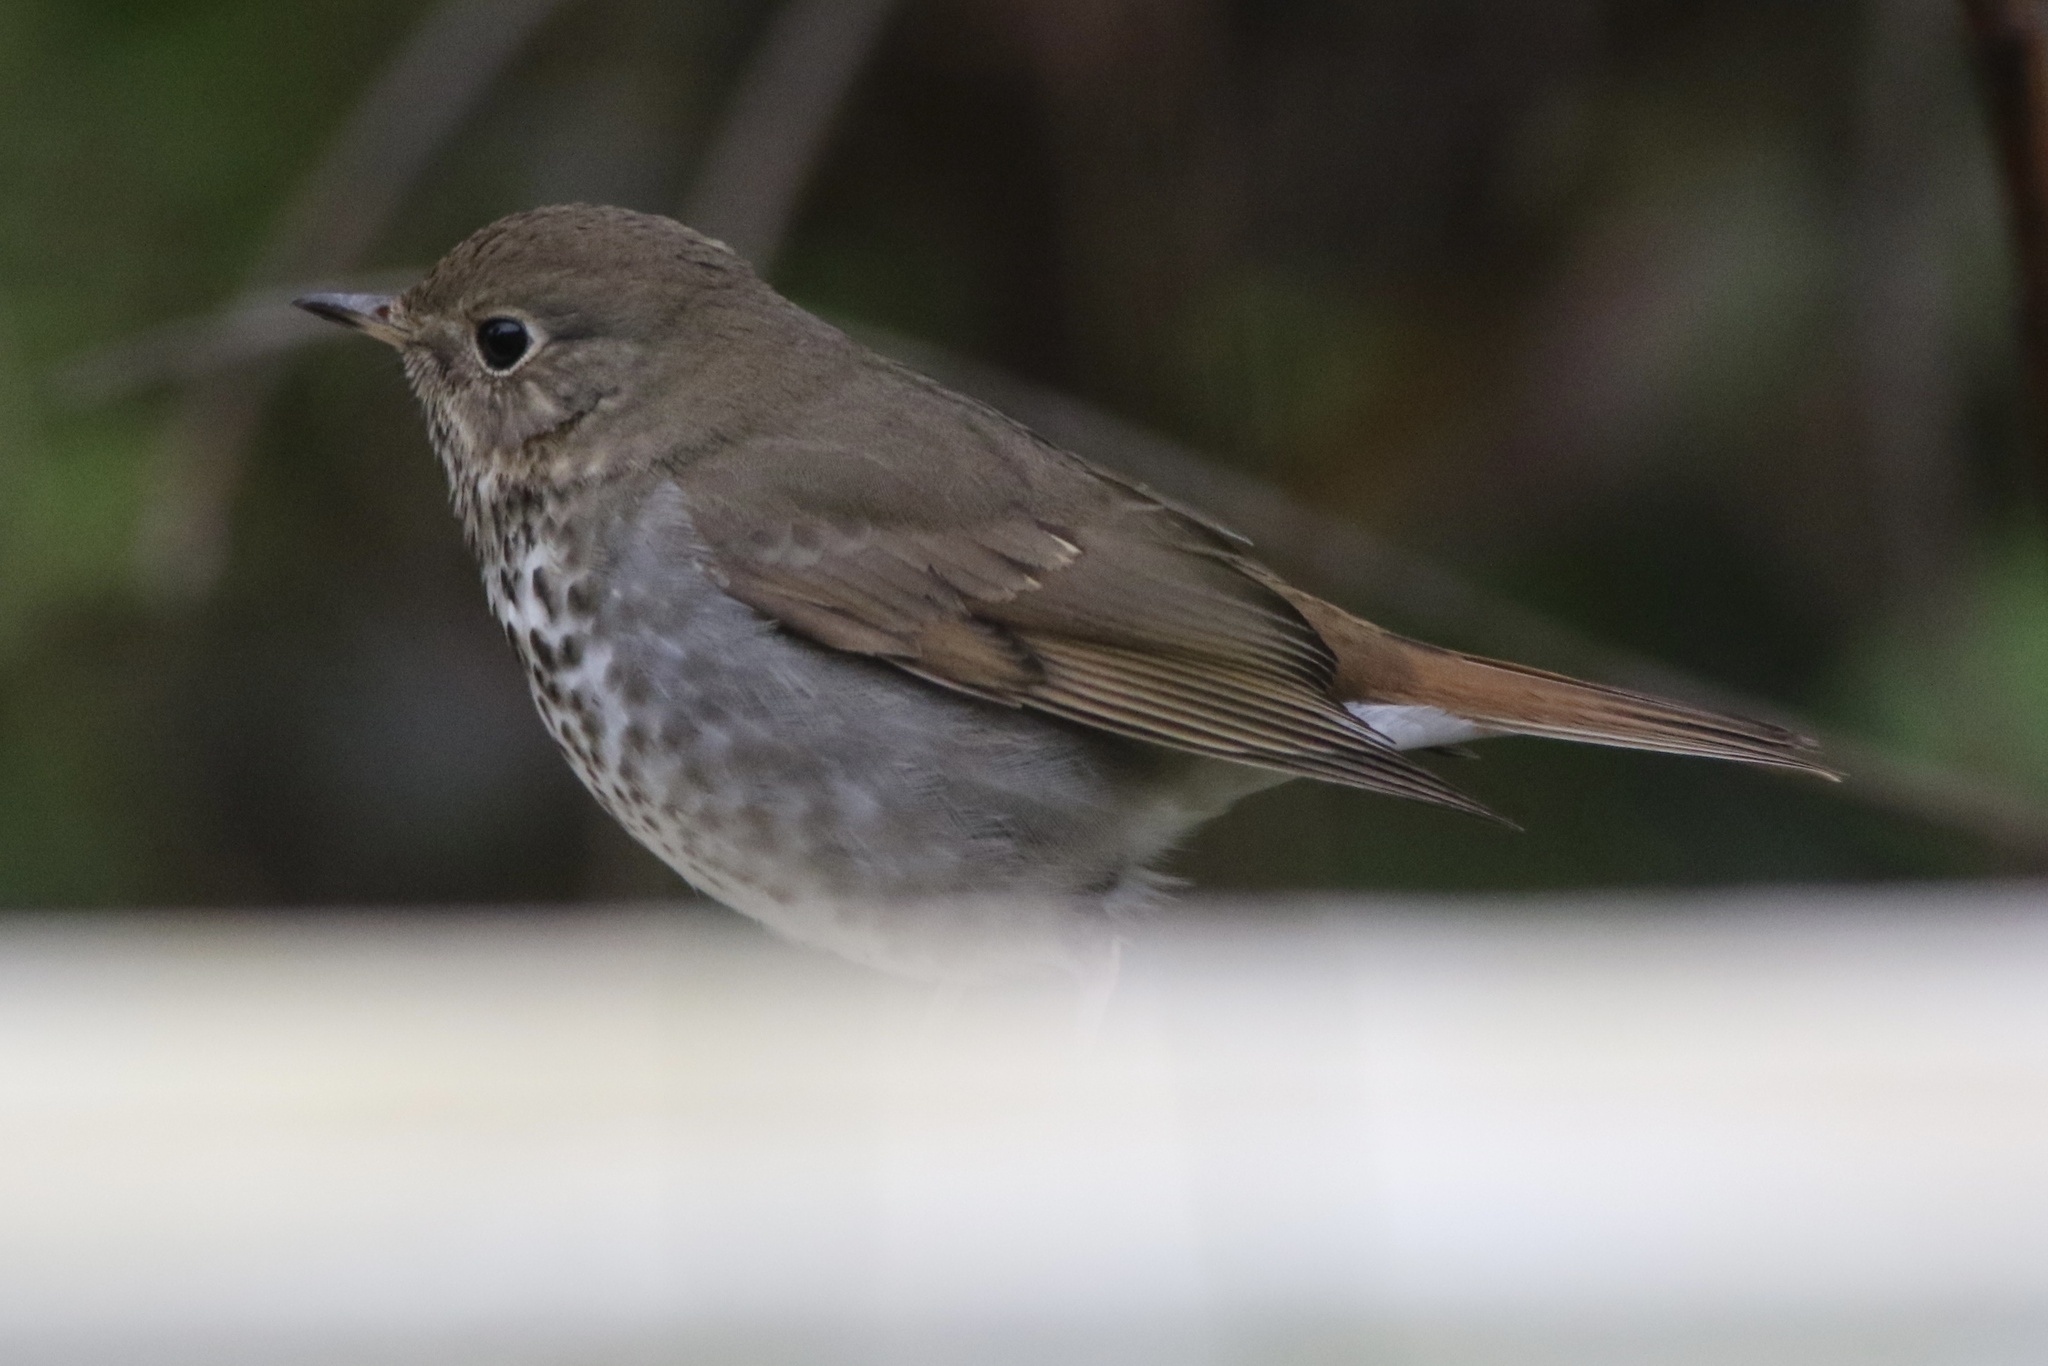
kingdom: Animalia
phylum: Chordata
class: Aves
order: Passeriformes
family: Turdidae
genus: Catharus
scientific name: Catharus guttatus
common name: Hermit thrush
